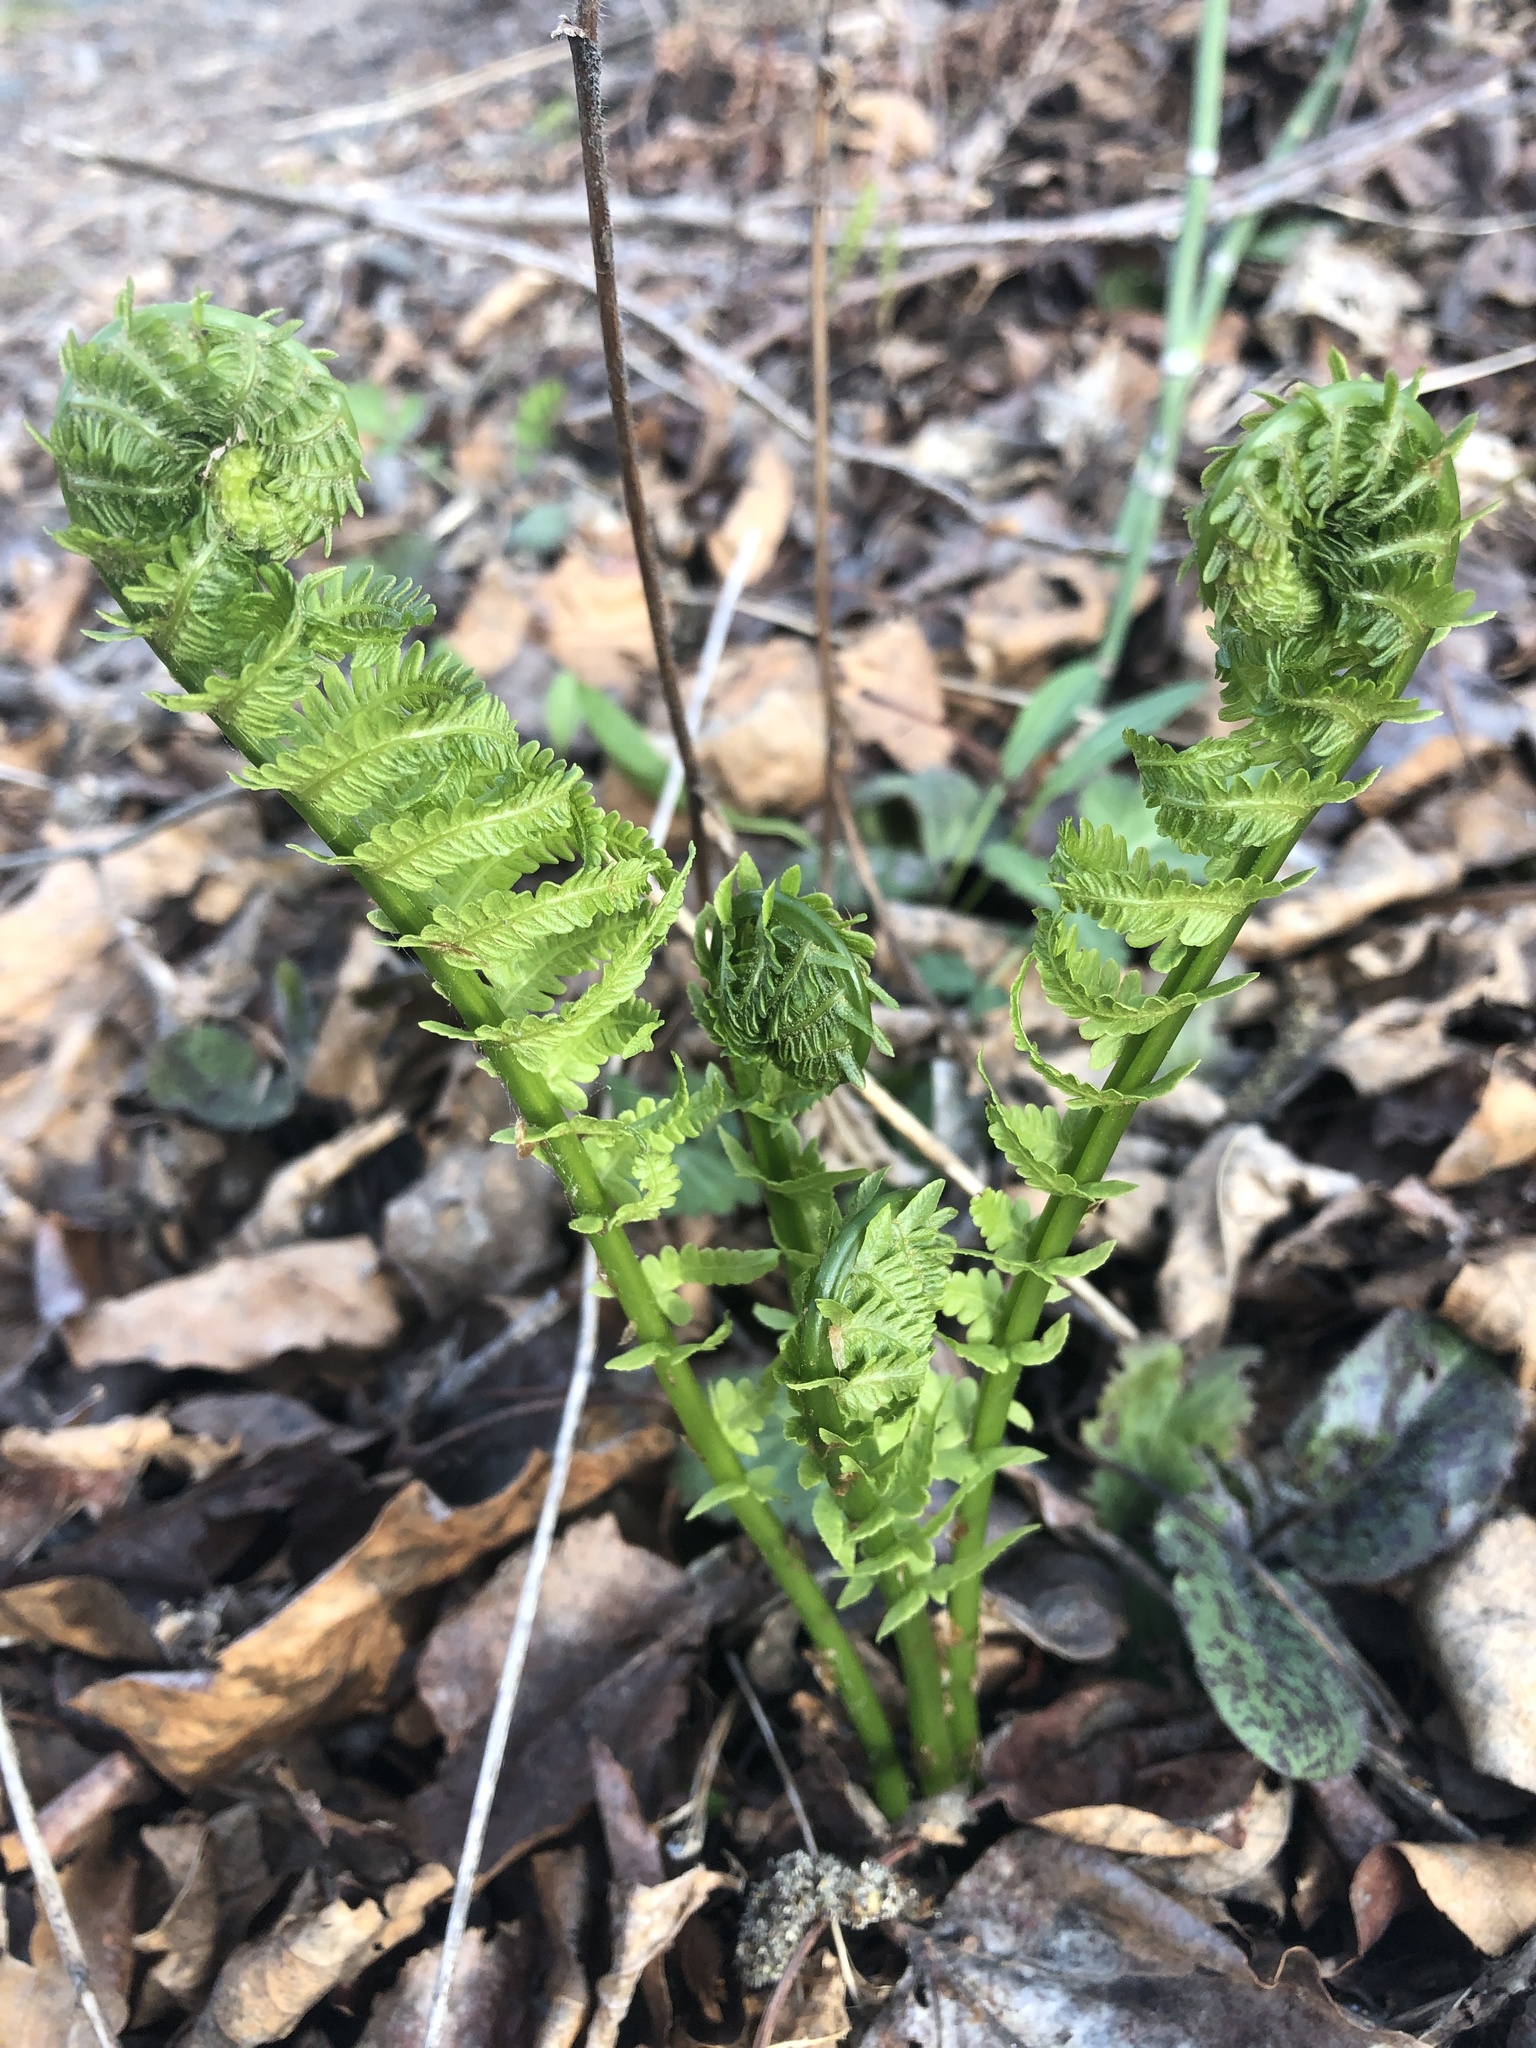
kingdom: Plantae
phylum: Tracheophyta
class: Polypodiopsida
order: Polypodiales
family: Onocleaceae
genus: Matteuccia
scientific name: Matteuccia struthiopteris
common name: Ostrich fern
